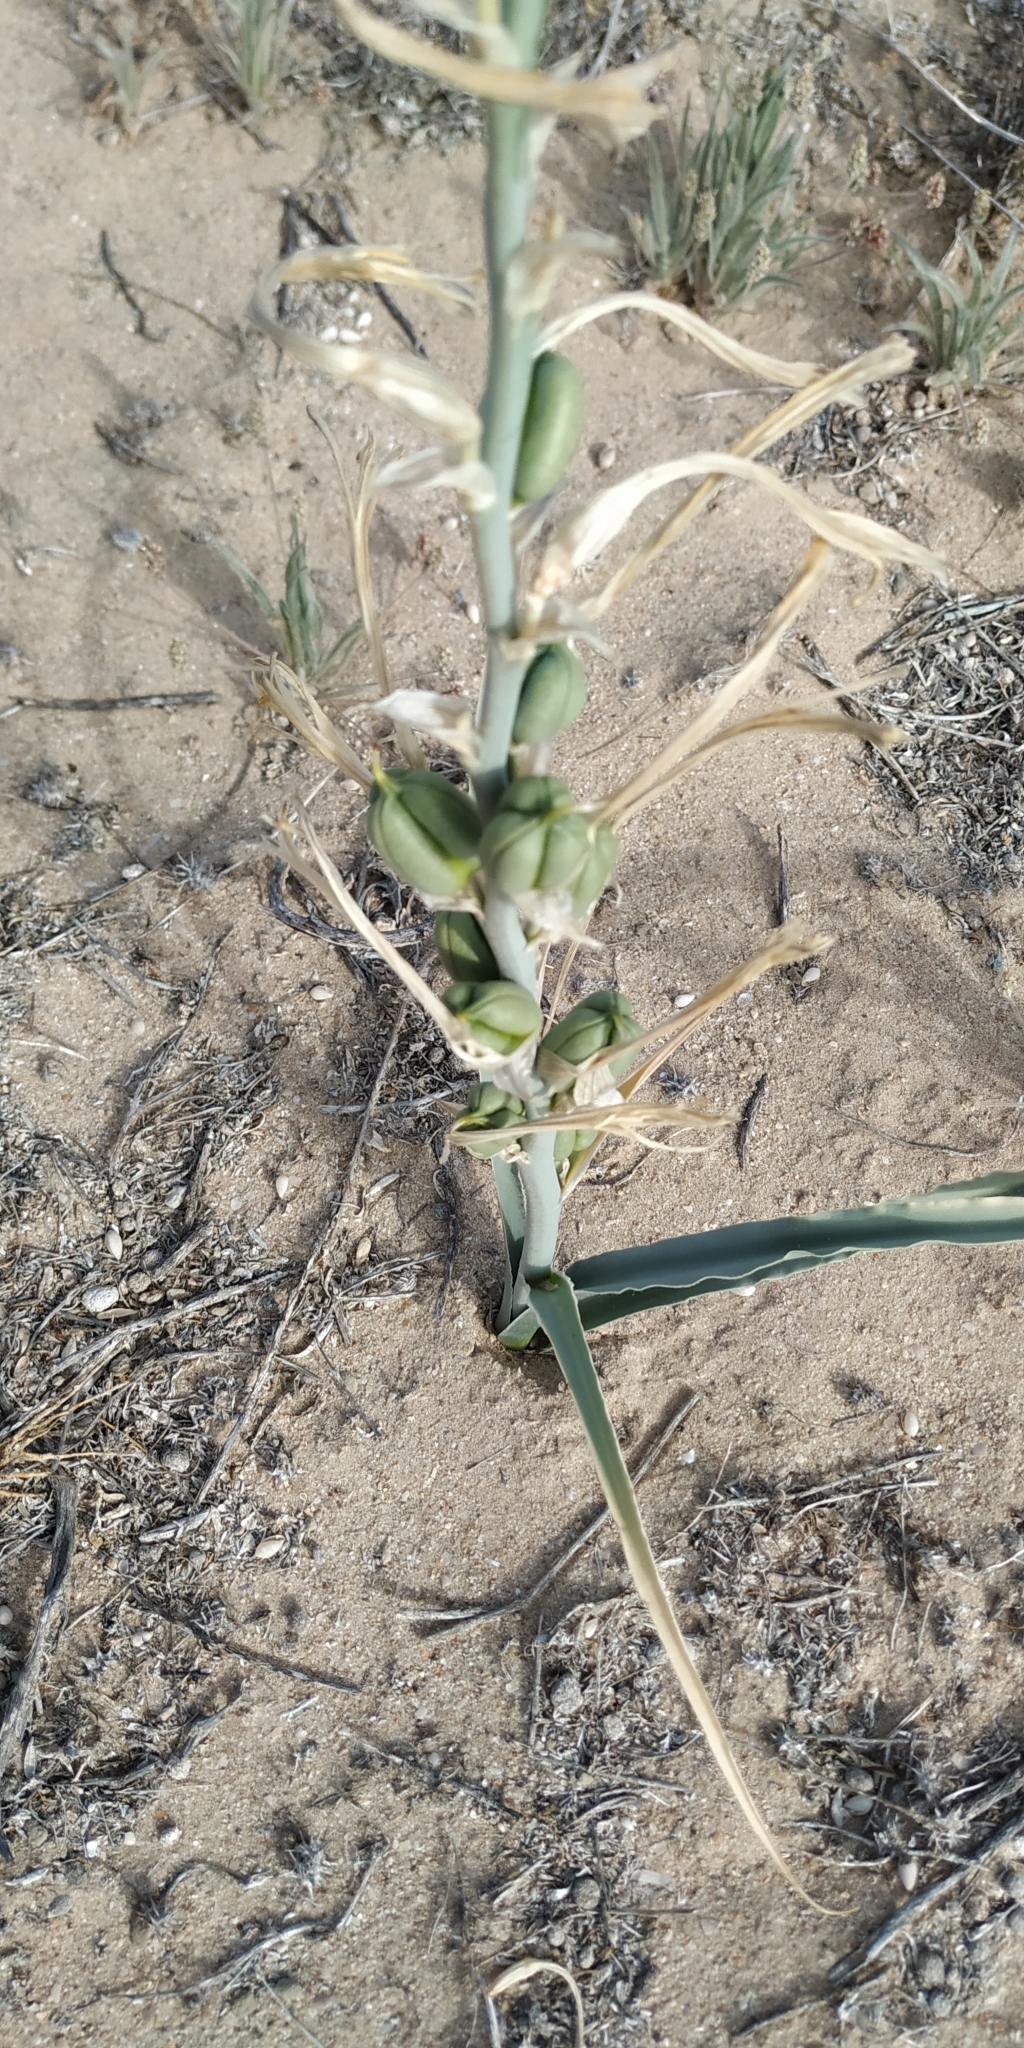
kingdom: Plantae
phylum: Tracheophyta
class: Liliopsida
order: Asparagales
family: Asparagaceae
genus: Hesperocallis
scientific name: Hesperocallis undulata
